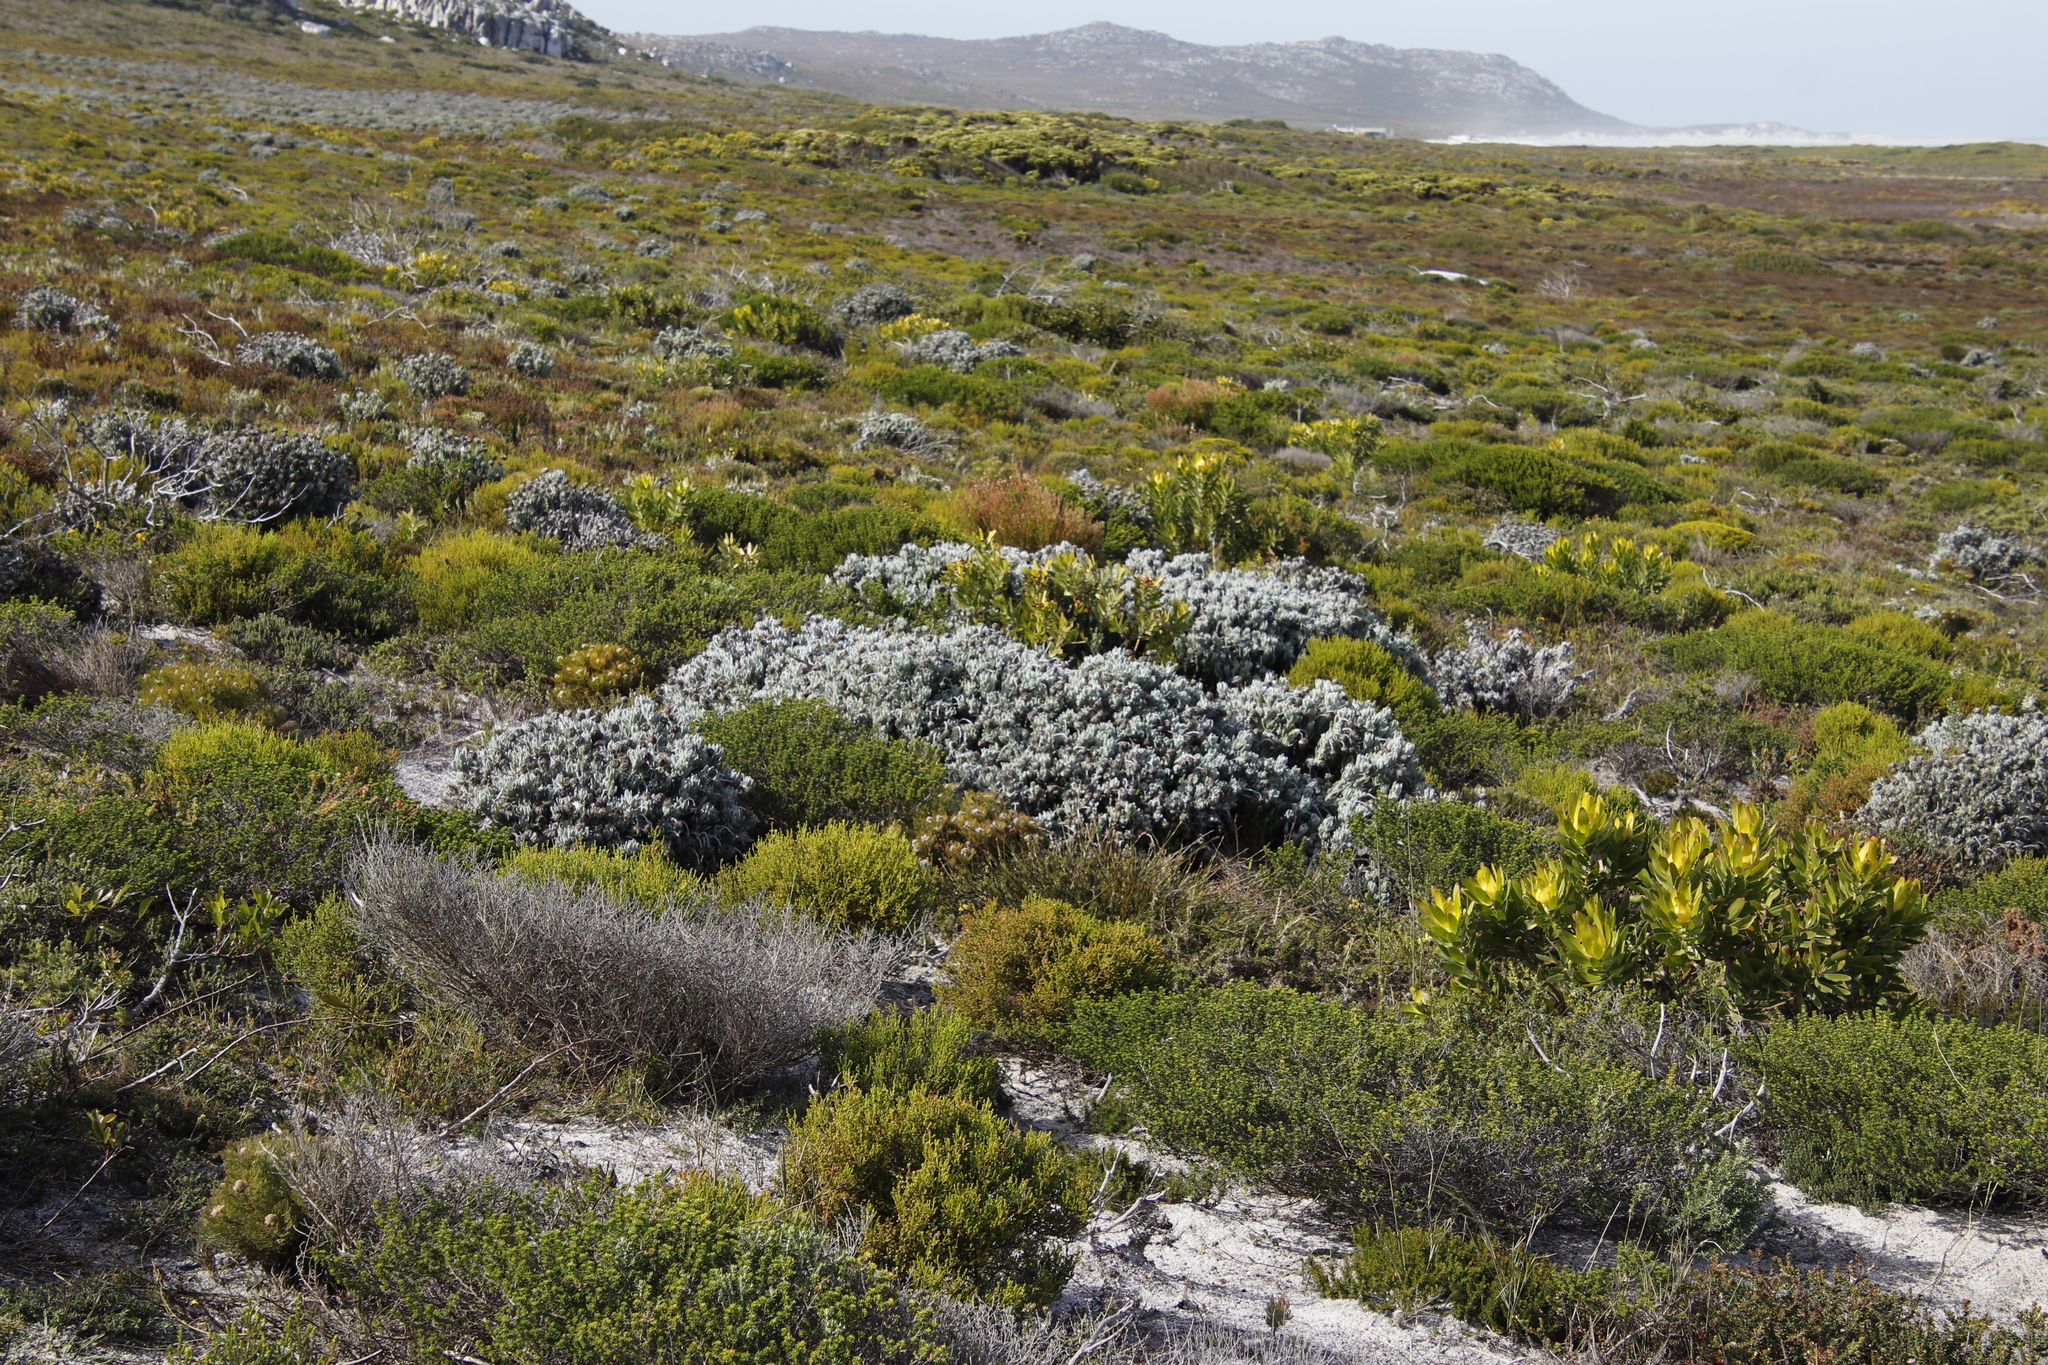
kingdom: Plantae
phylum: Tracheophyta
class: Magnoliopsida
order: Asterales
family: Asteraceae
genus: Syncarpha
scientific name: Syncarpha vestita
